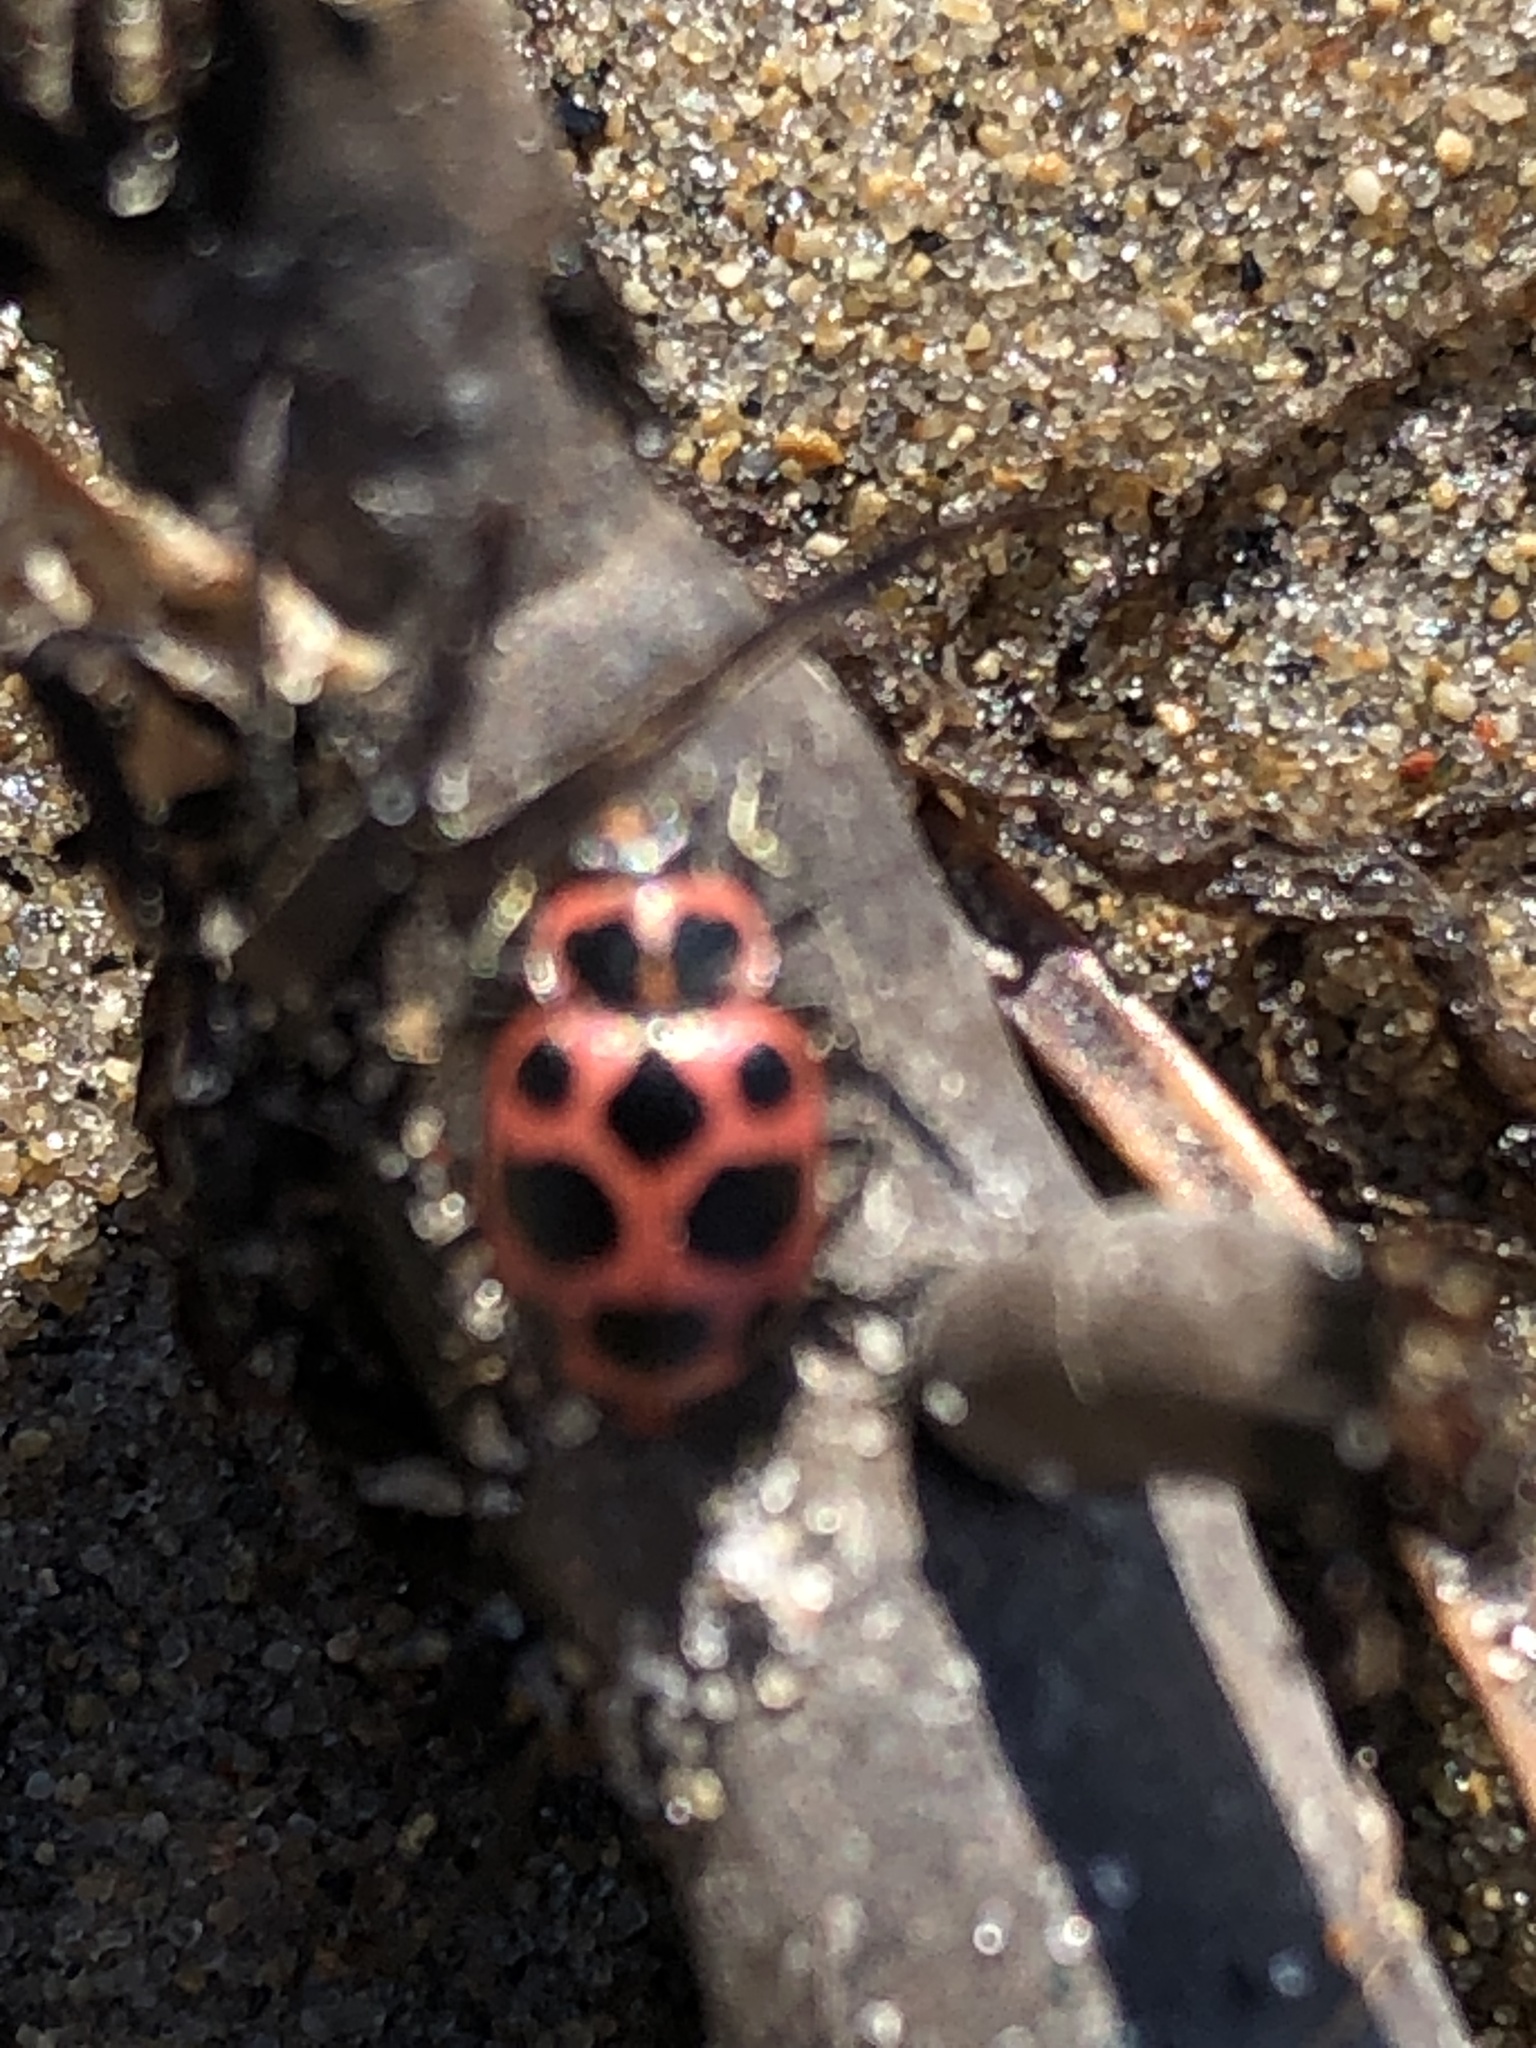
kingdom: Animalia
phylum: Arthropoda
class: Insecta
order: Coleoptera
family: Coccinellidae
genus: Coleomegilla
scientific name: Coleomegilla maculata
